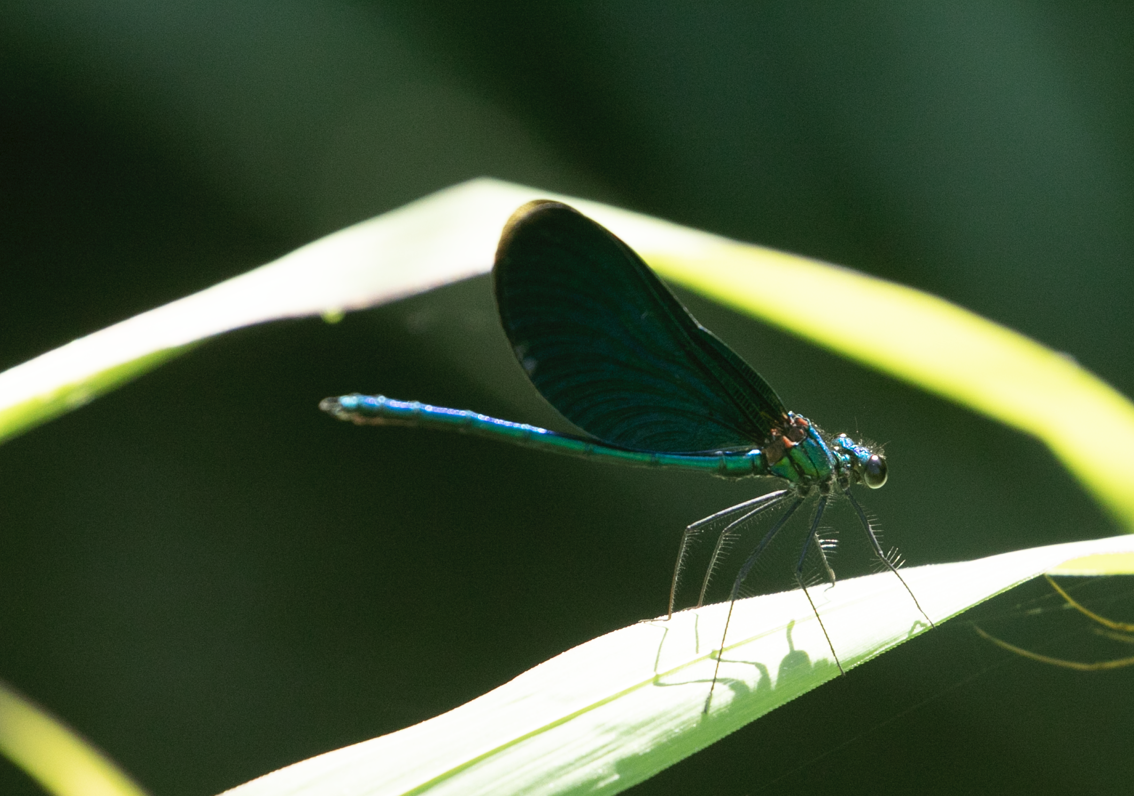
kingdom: Animalia
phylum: Arthropoda
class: Insecta
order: Odonata
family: Calopterygidae
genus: Calopteryx
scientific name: Calopteryx virgo
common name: Beautiful demoiselle
